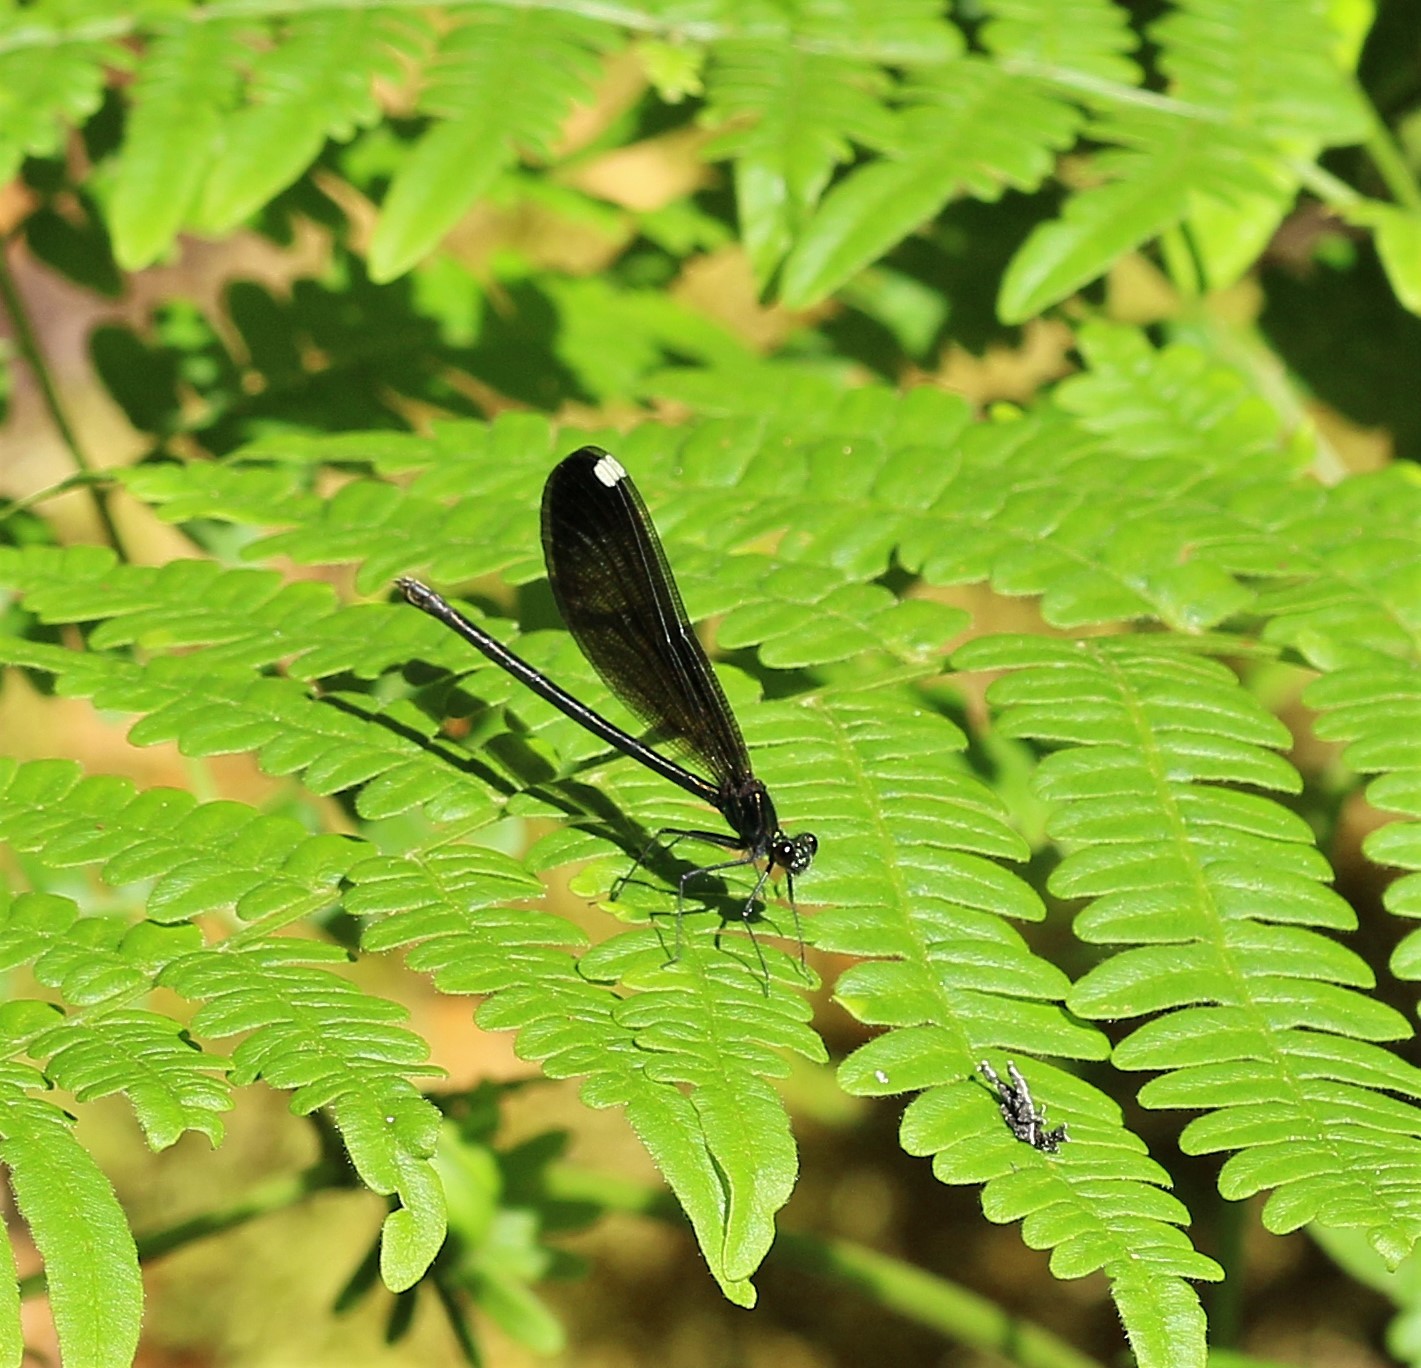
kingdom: Animalia
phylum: Arthropoda
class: Insecta
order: Odonata
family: Calopterygidae
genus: Calopteryx
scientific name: Calopteryx maculata
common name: Ebony jewelwing
